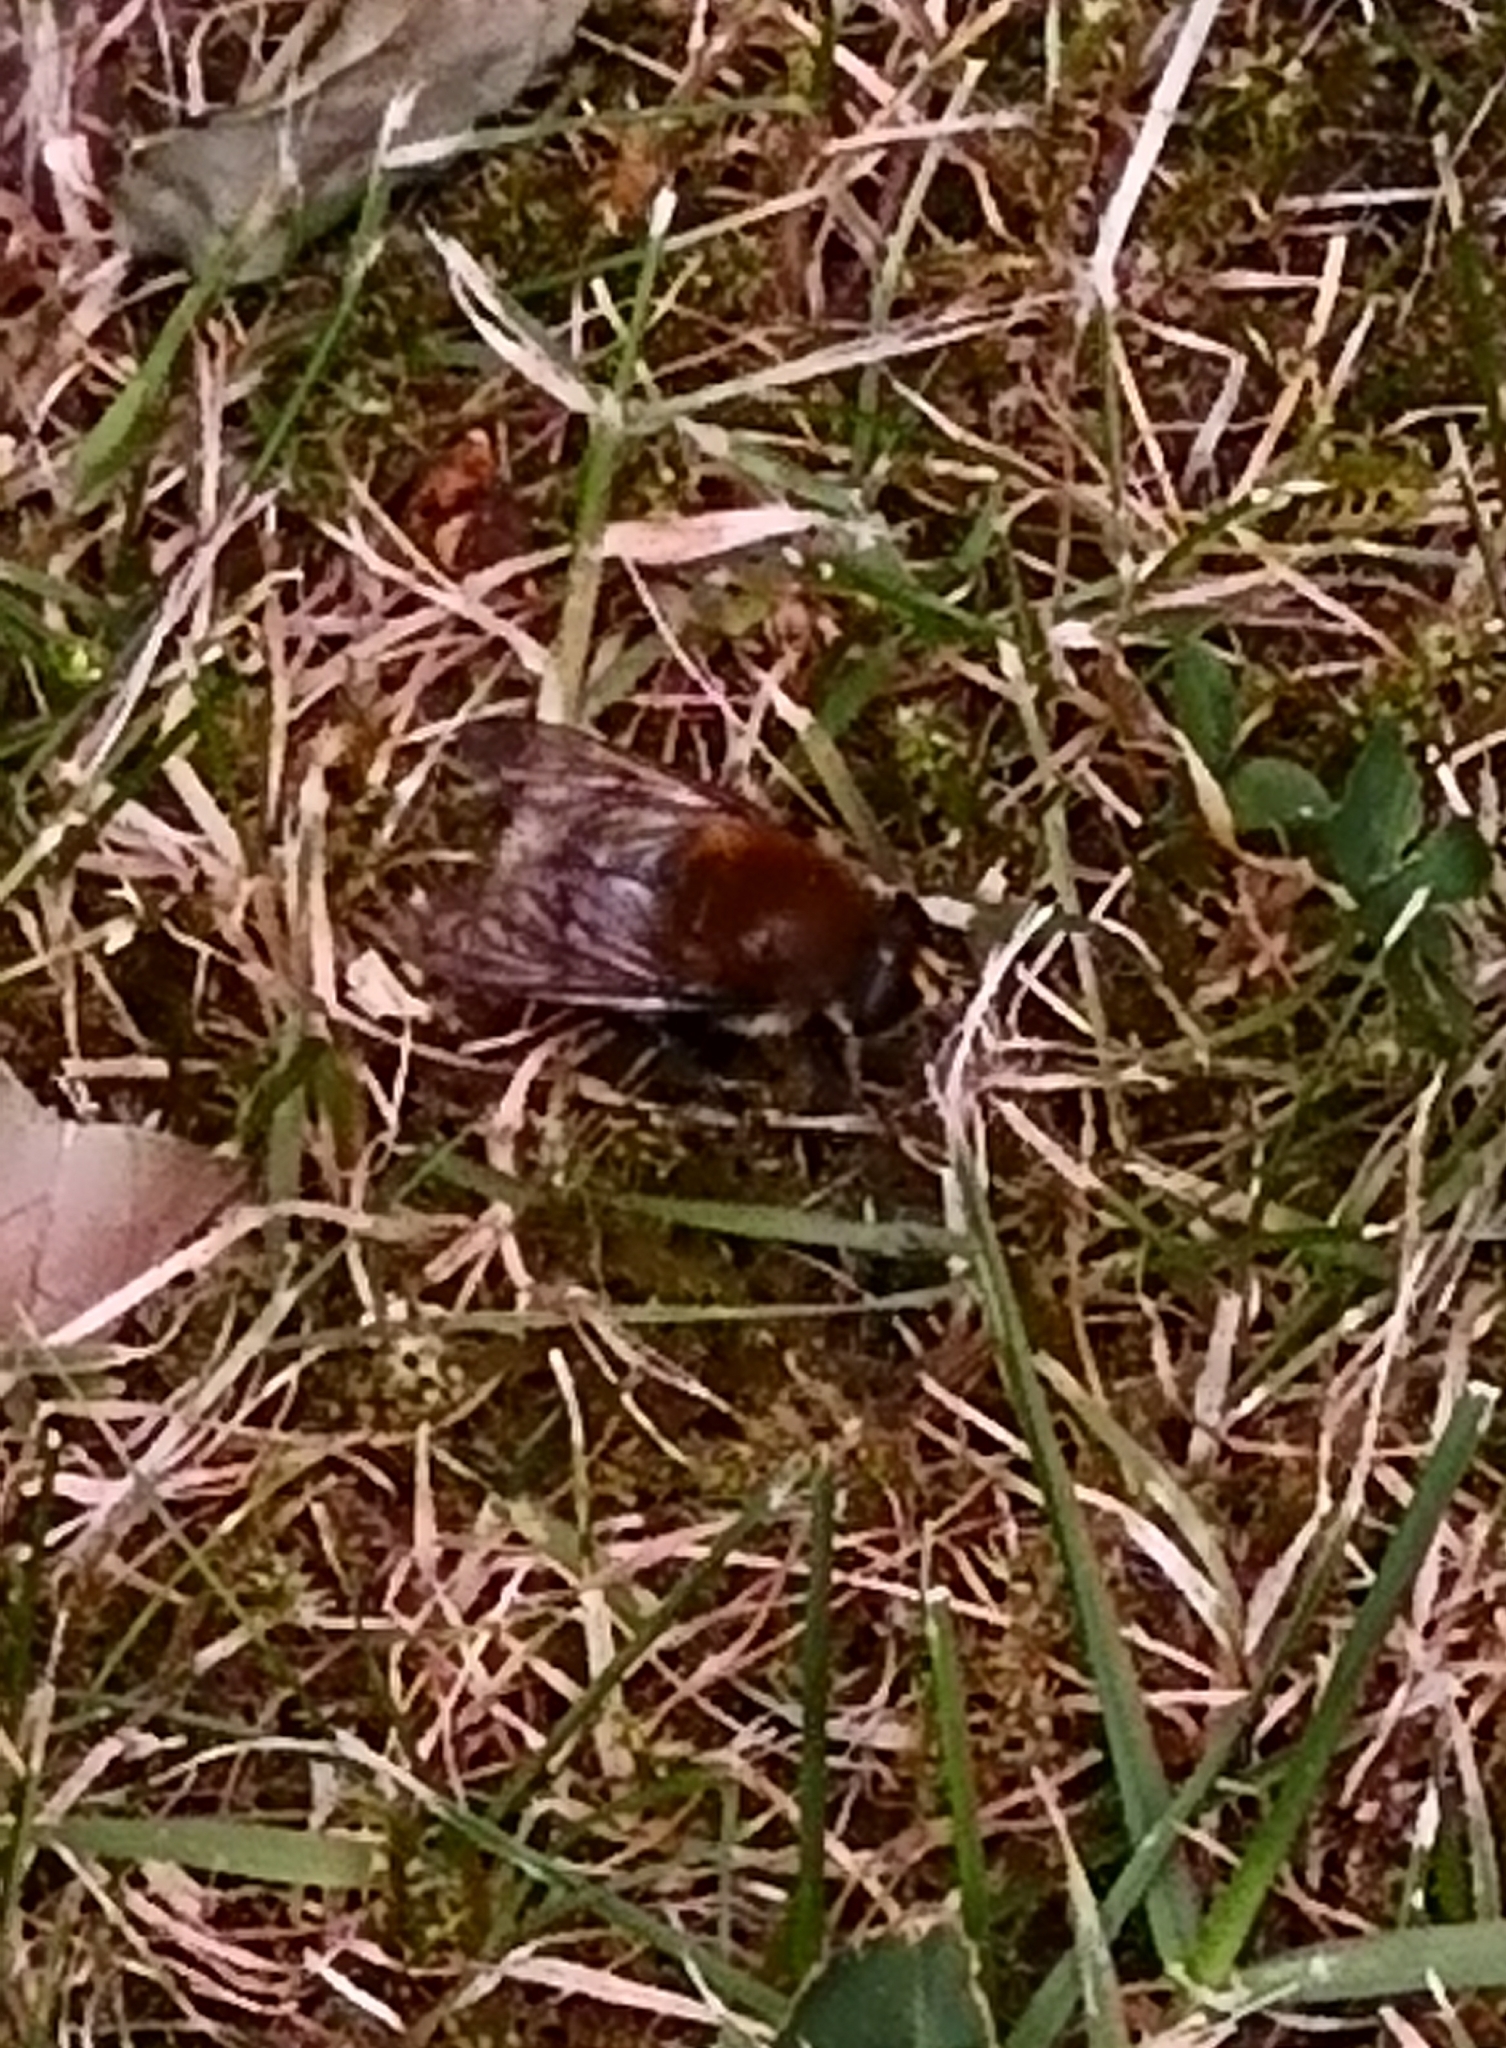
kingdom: Animalia
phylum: Arthropoda
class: Insecta
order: Diptera
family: Syrphidae
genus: Merodon
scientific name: Merodon equestris
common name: Greater bulb-fly
